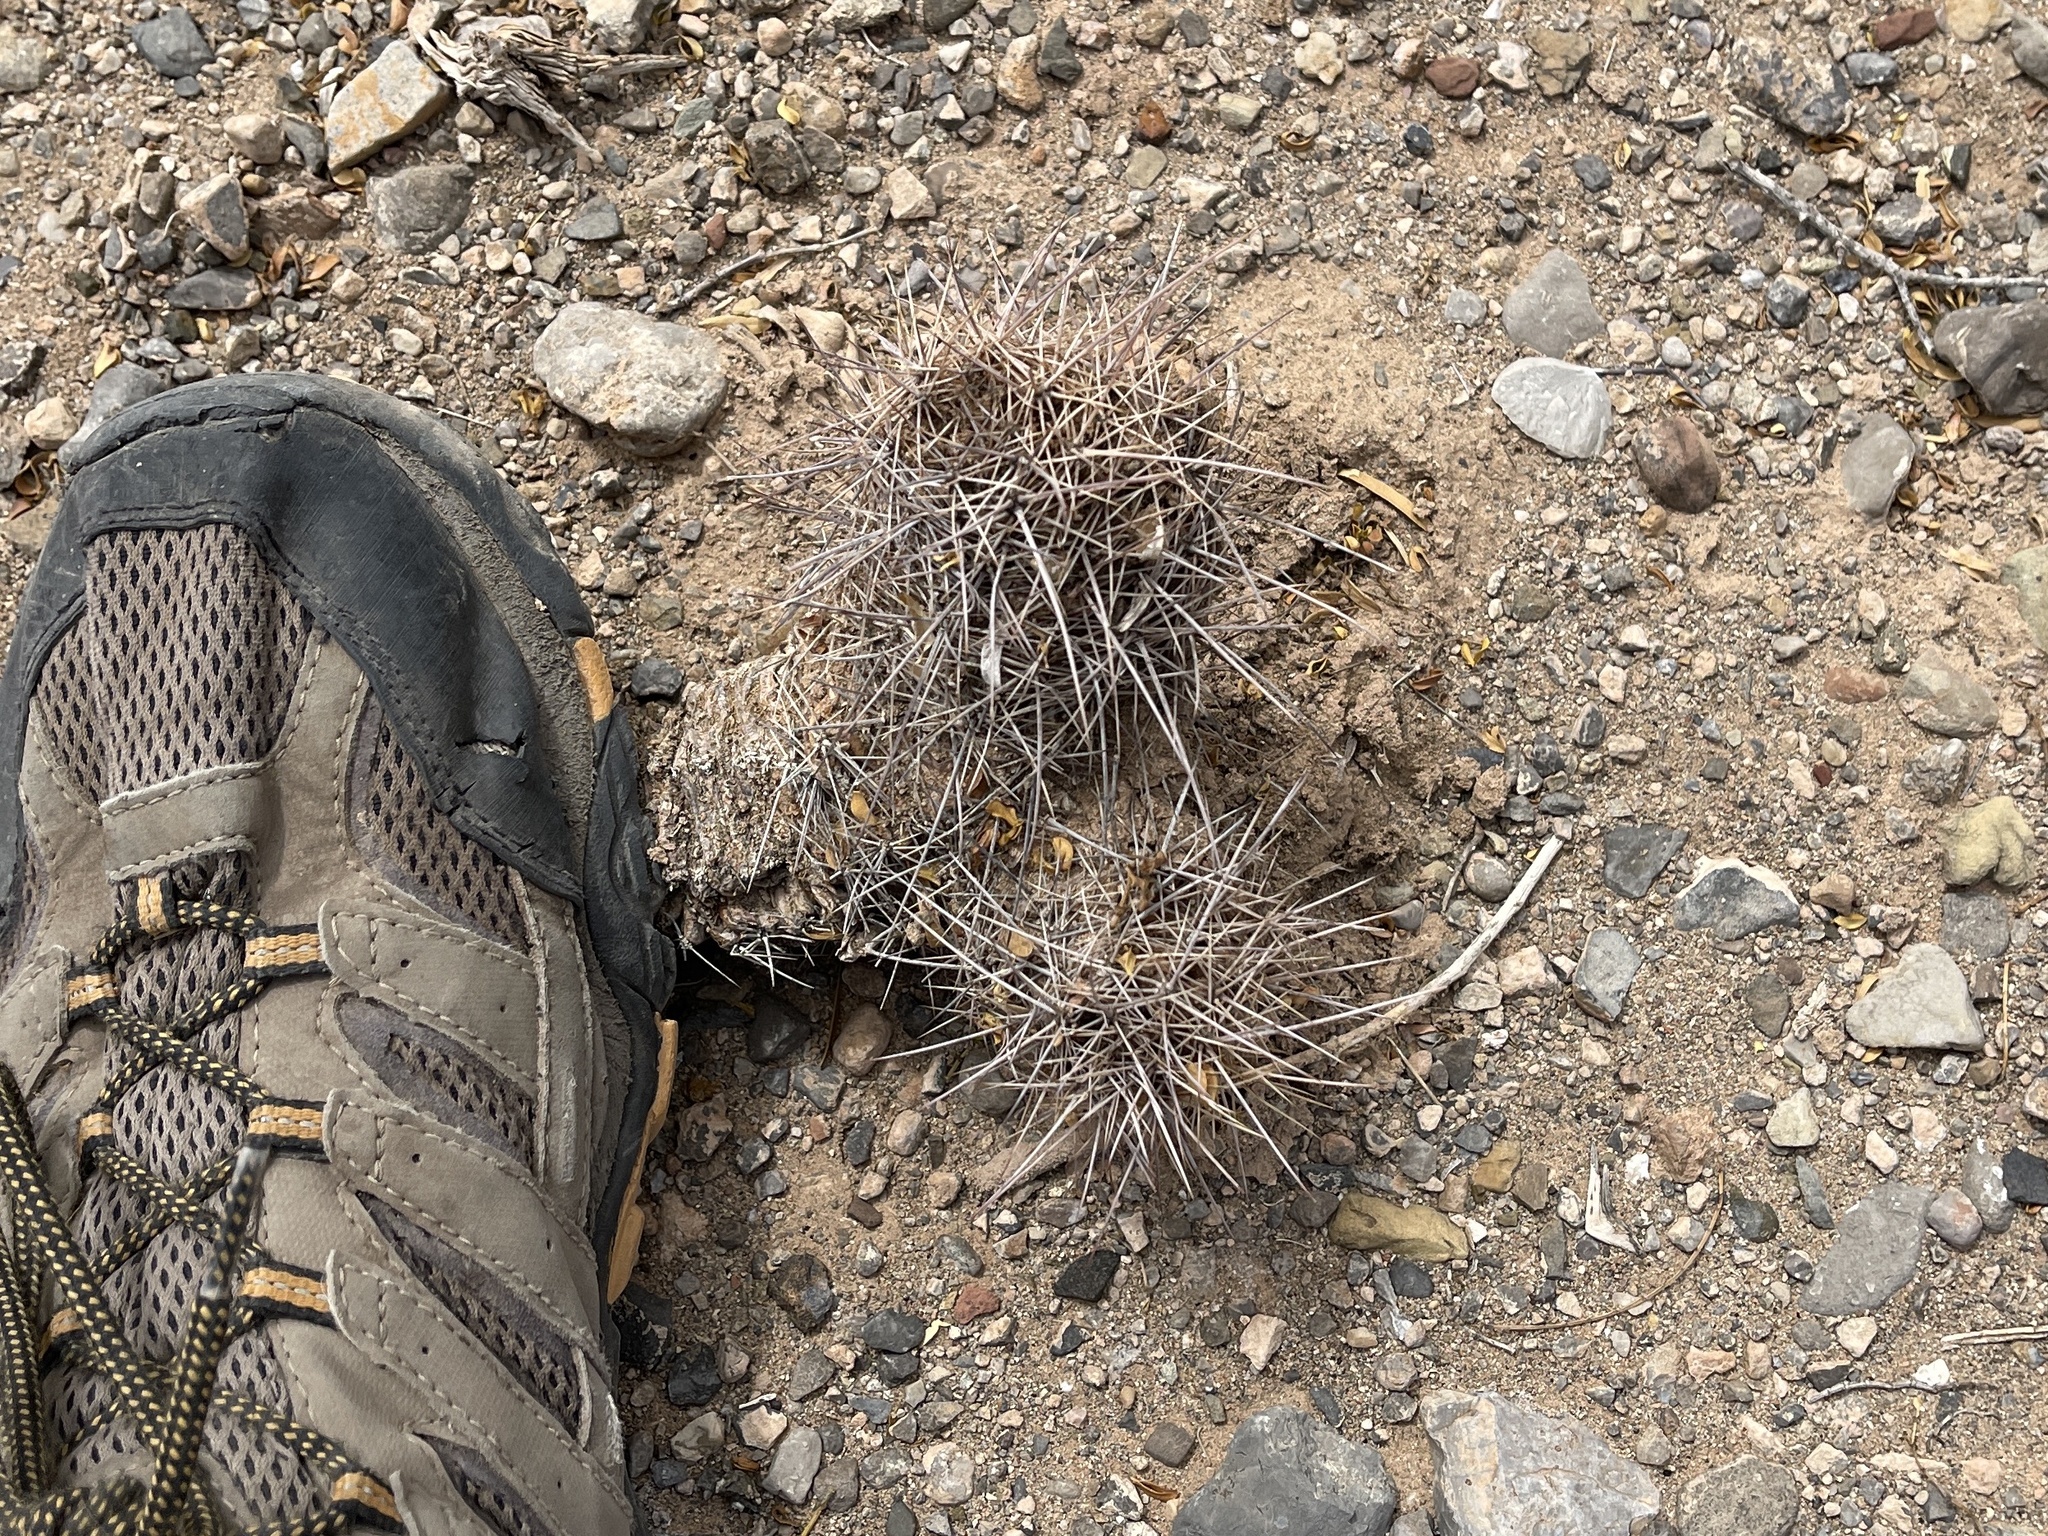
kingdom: Plantae
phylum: Tracheophyta
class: Magnoliopsida
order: Caryophyllales
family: Cactaceae
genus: Echinocereus
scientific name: Echinocereus coccineus
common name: Scarlet hedgehog cactus
